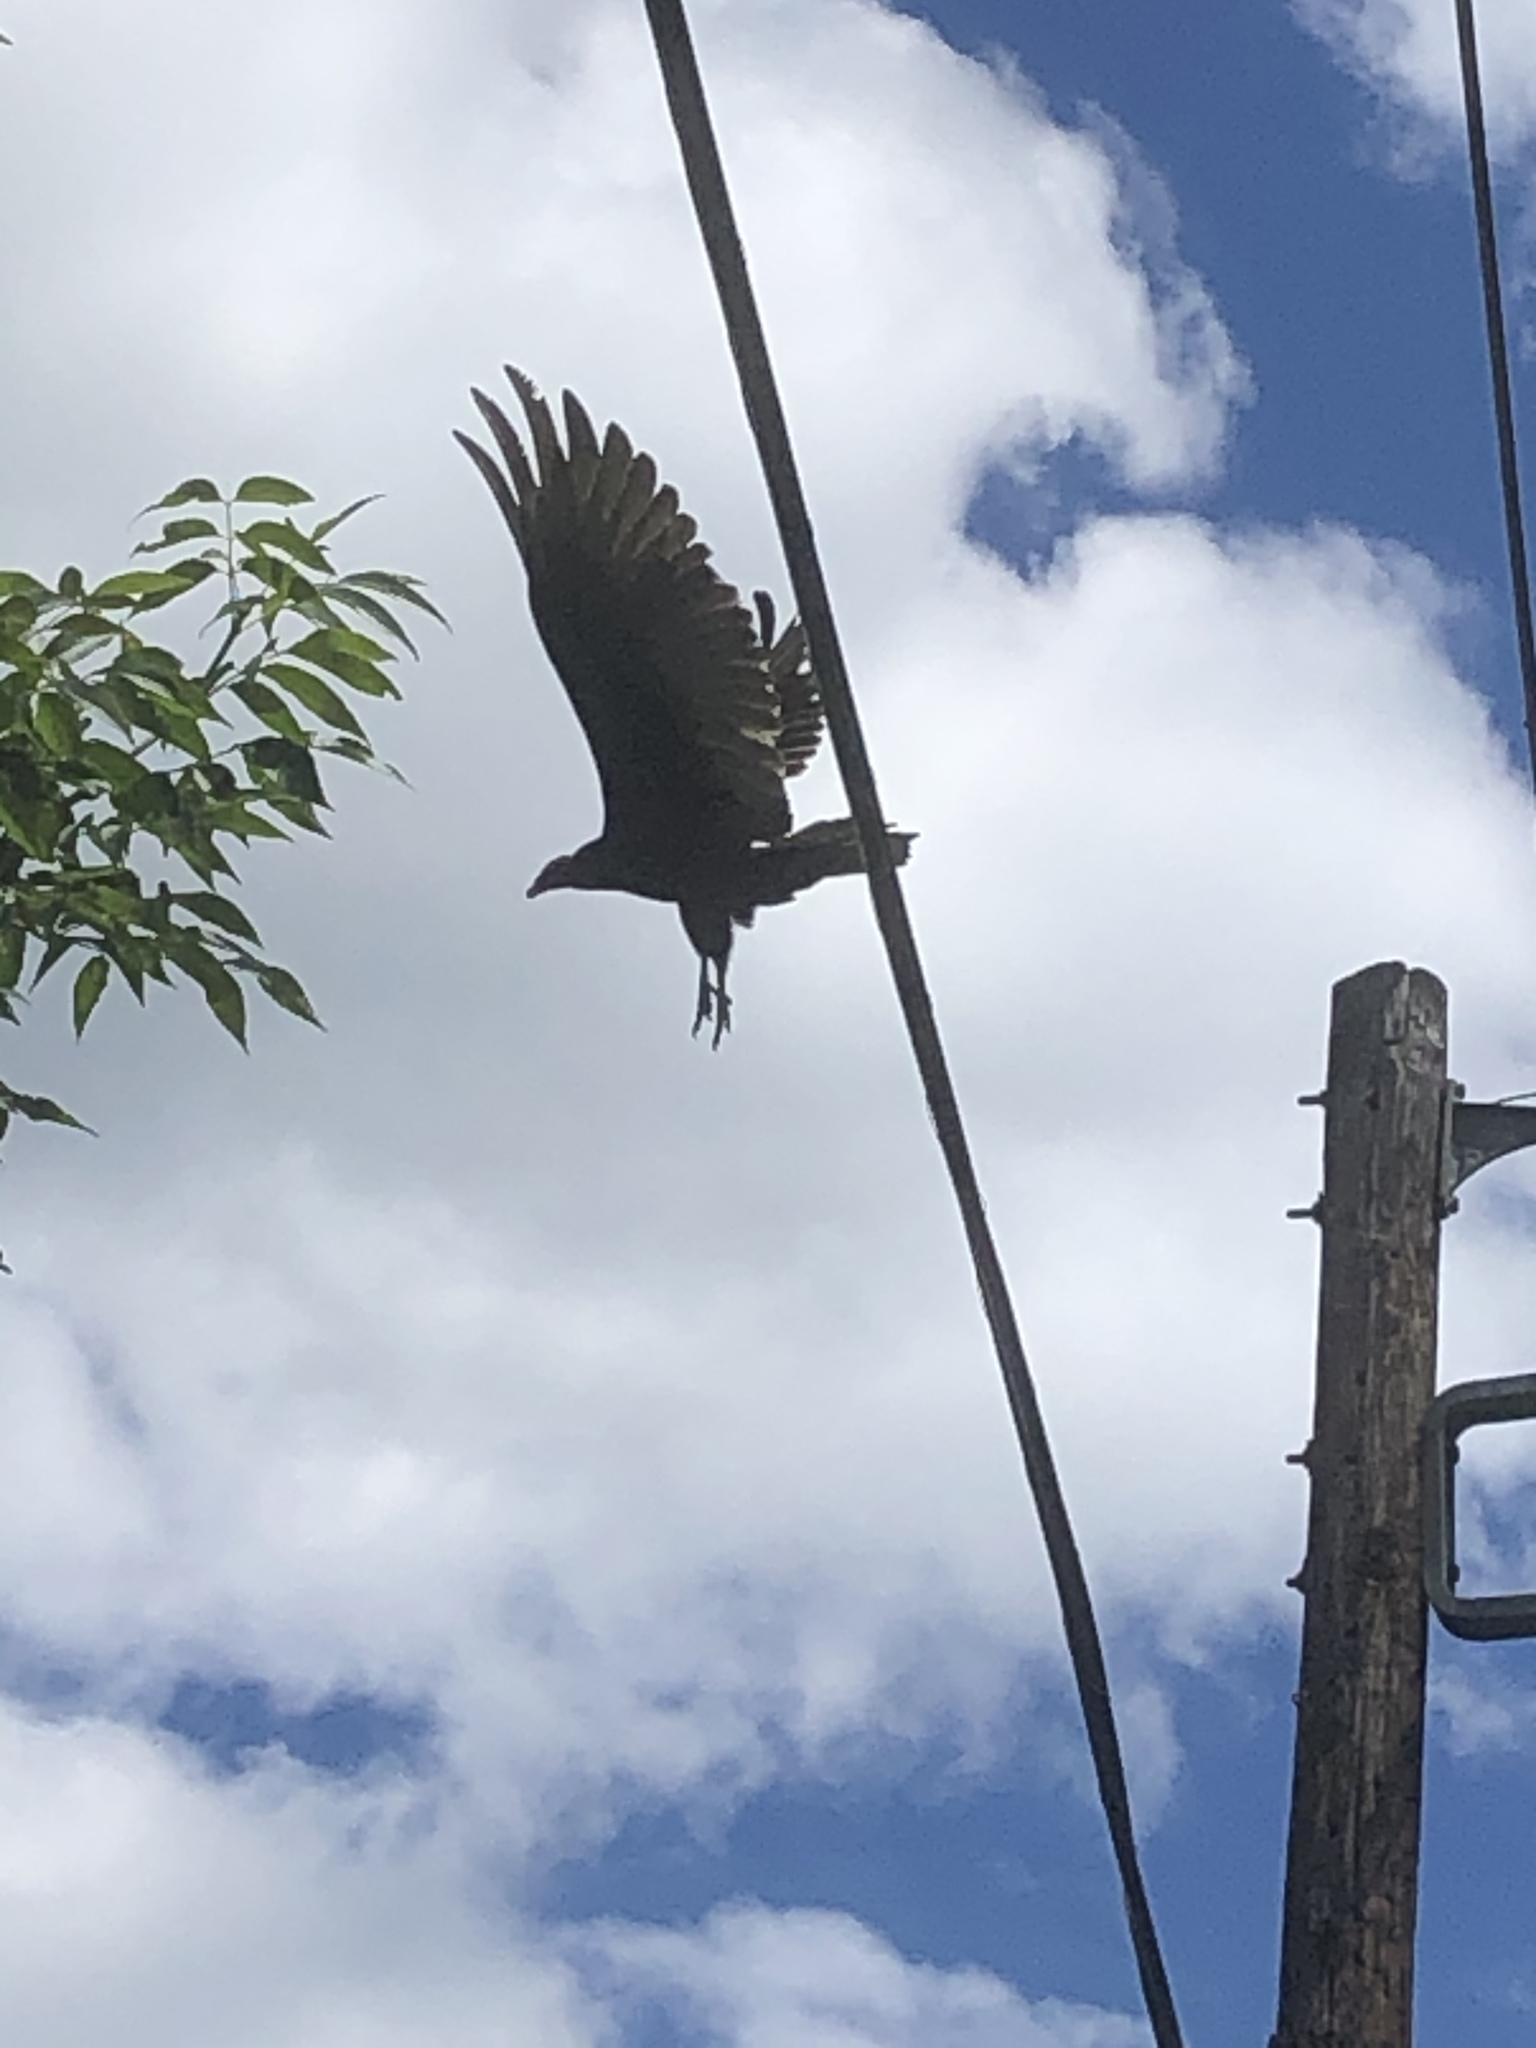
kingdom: Animalia
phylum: Chordata
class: Aves
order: Accipitriformes
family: Cathartidae
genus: Cathartes
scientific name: Cathartes aura
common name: Turkey vulture
